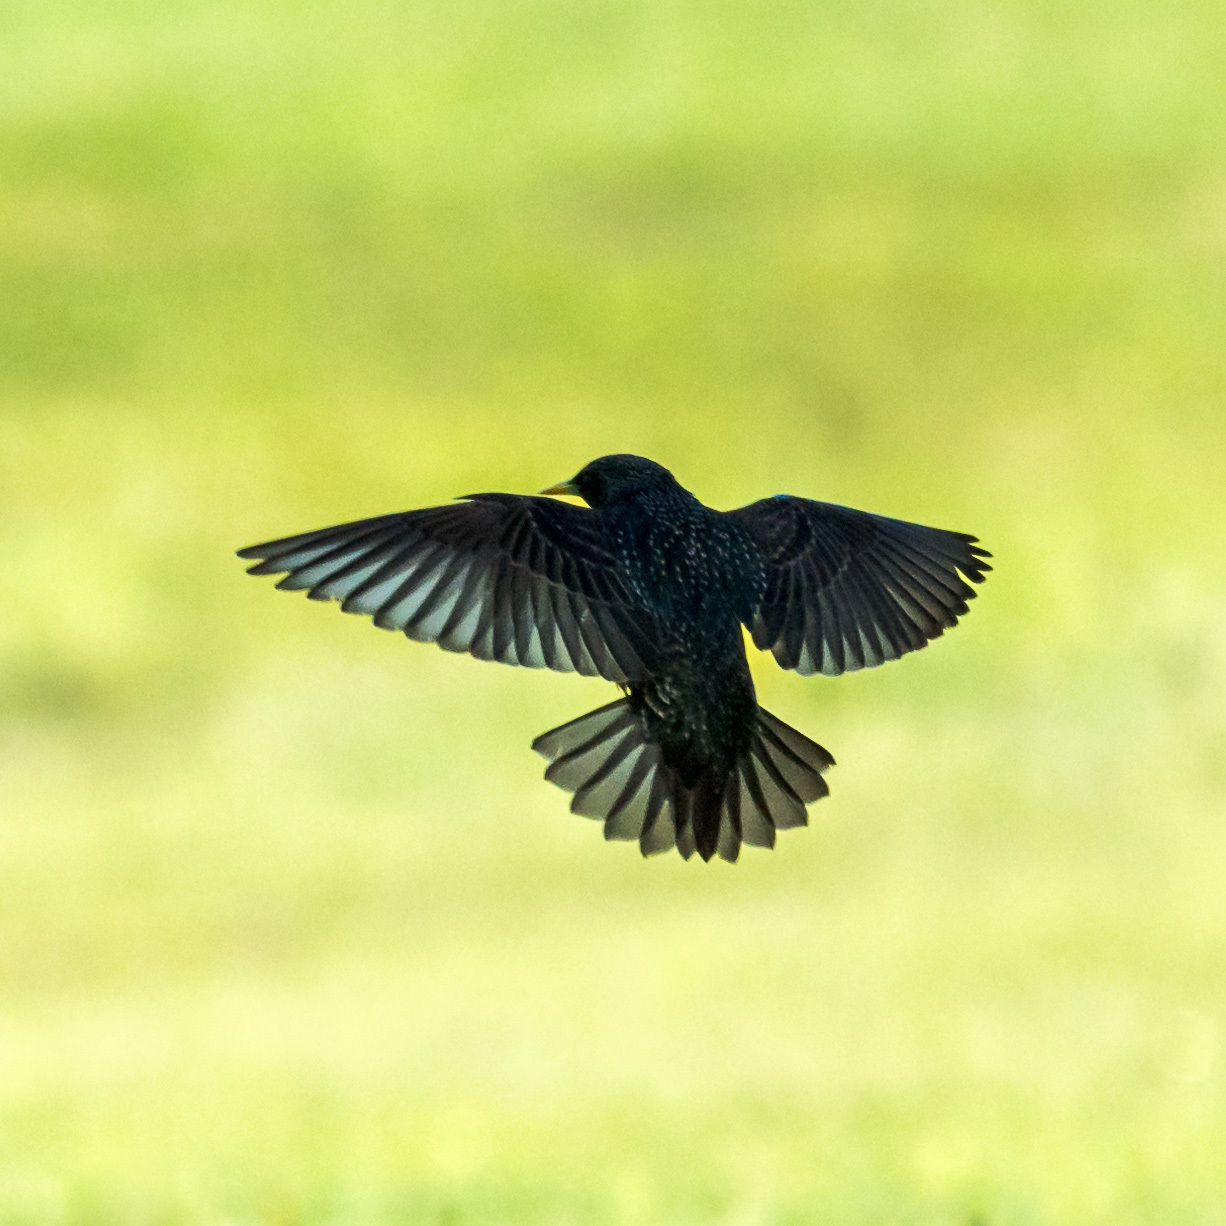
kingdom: Animalia
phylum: Chordata
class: Aves
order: Passeriformes
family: Sturnidae
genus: Sturnus
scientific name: Sturnus vulgaris
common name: Common starling
